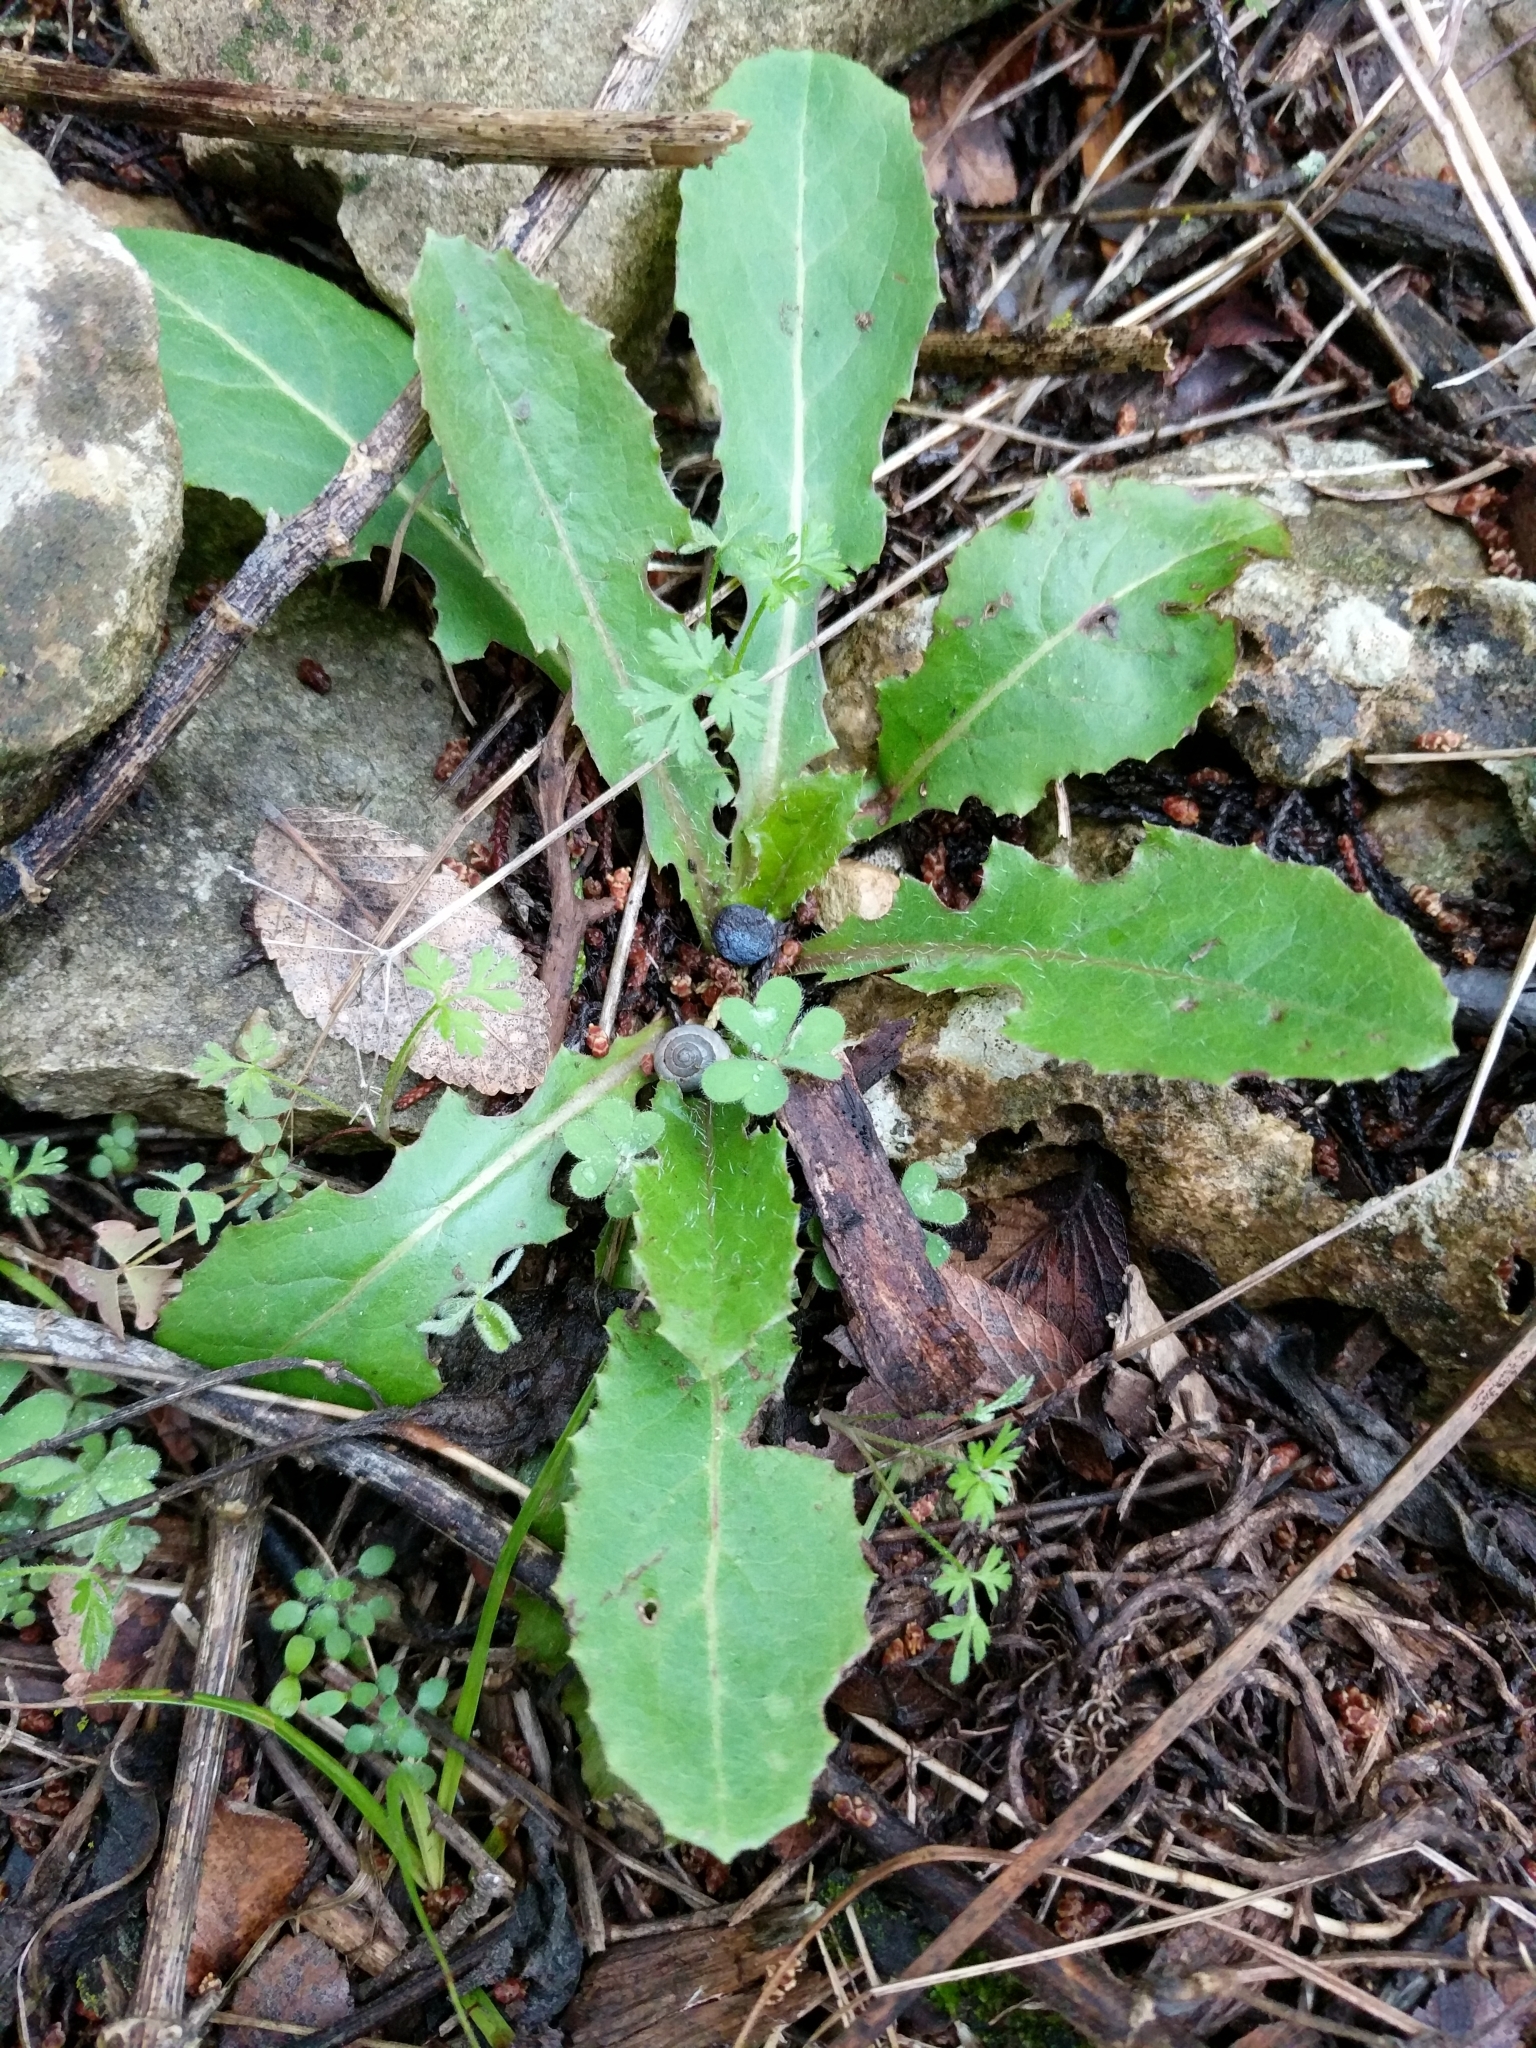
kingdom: Plantae
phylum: Tracheophyta
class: Magnoliopsida
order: Asterales
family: Asteraceae
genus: Sonchus
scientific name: Sonchus oleraceus
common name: Common sowthistle
